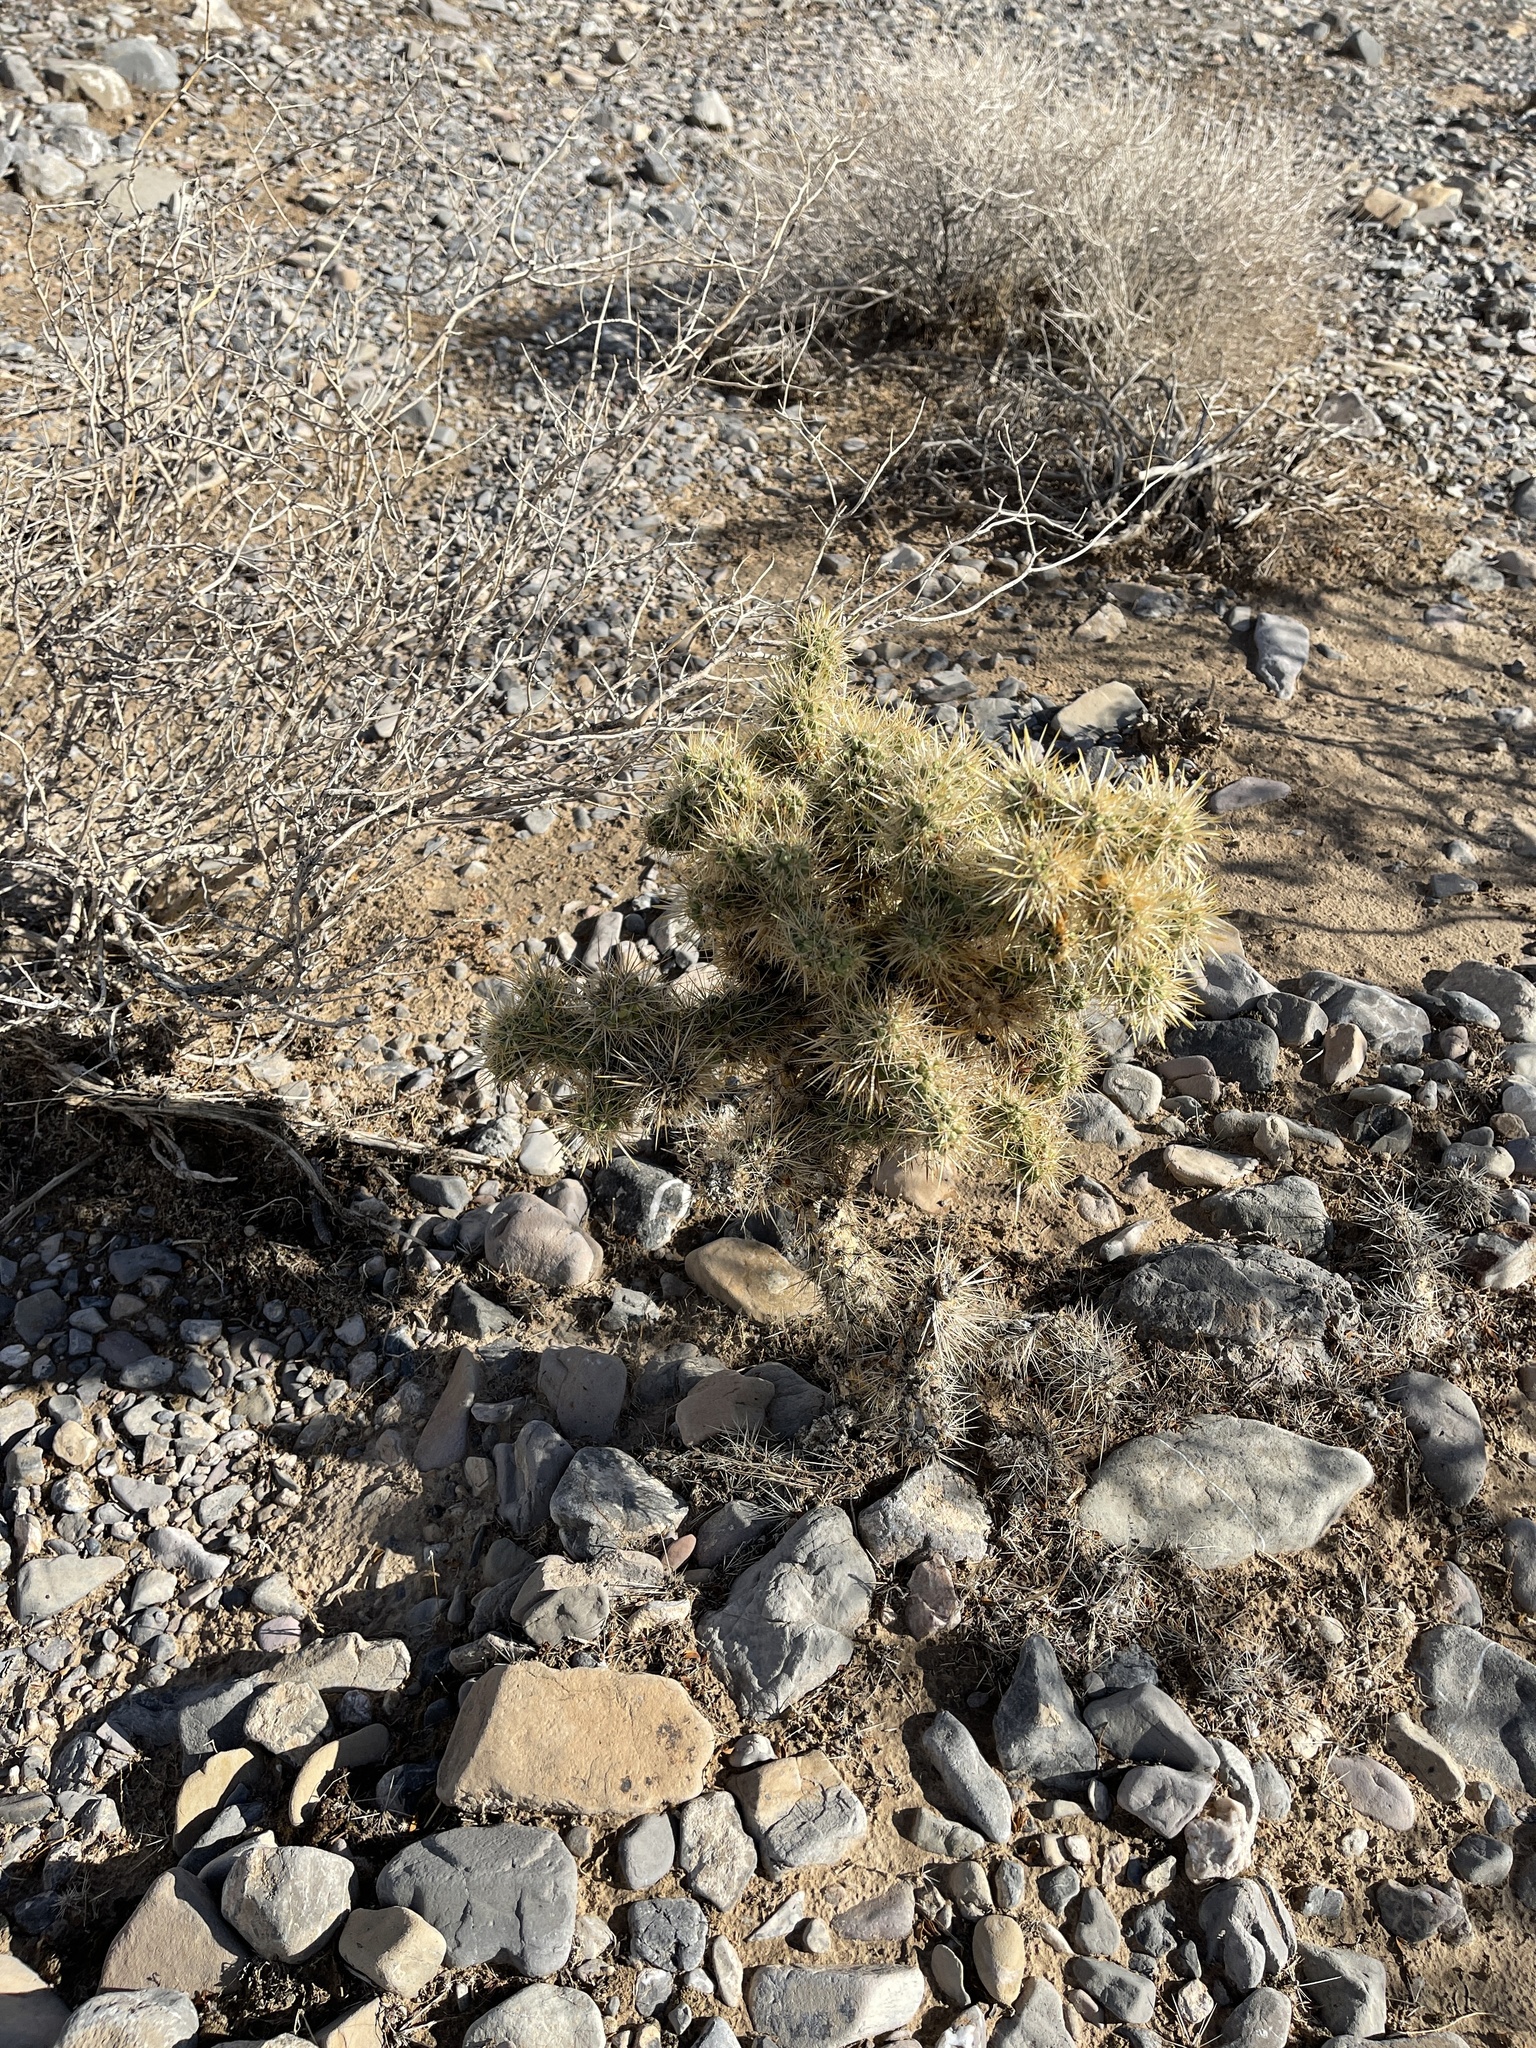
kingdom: Plantae
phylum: Tracheophyta
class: Magnoliopsida
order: Caryophyllales
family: Cactaceae
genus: Cylindropuntia
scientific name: Cylindropuntia echinocarpa
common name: Ground cholla
